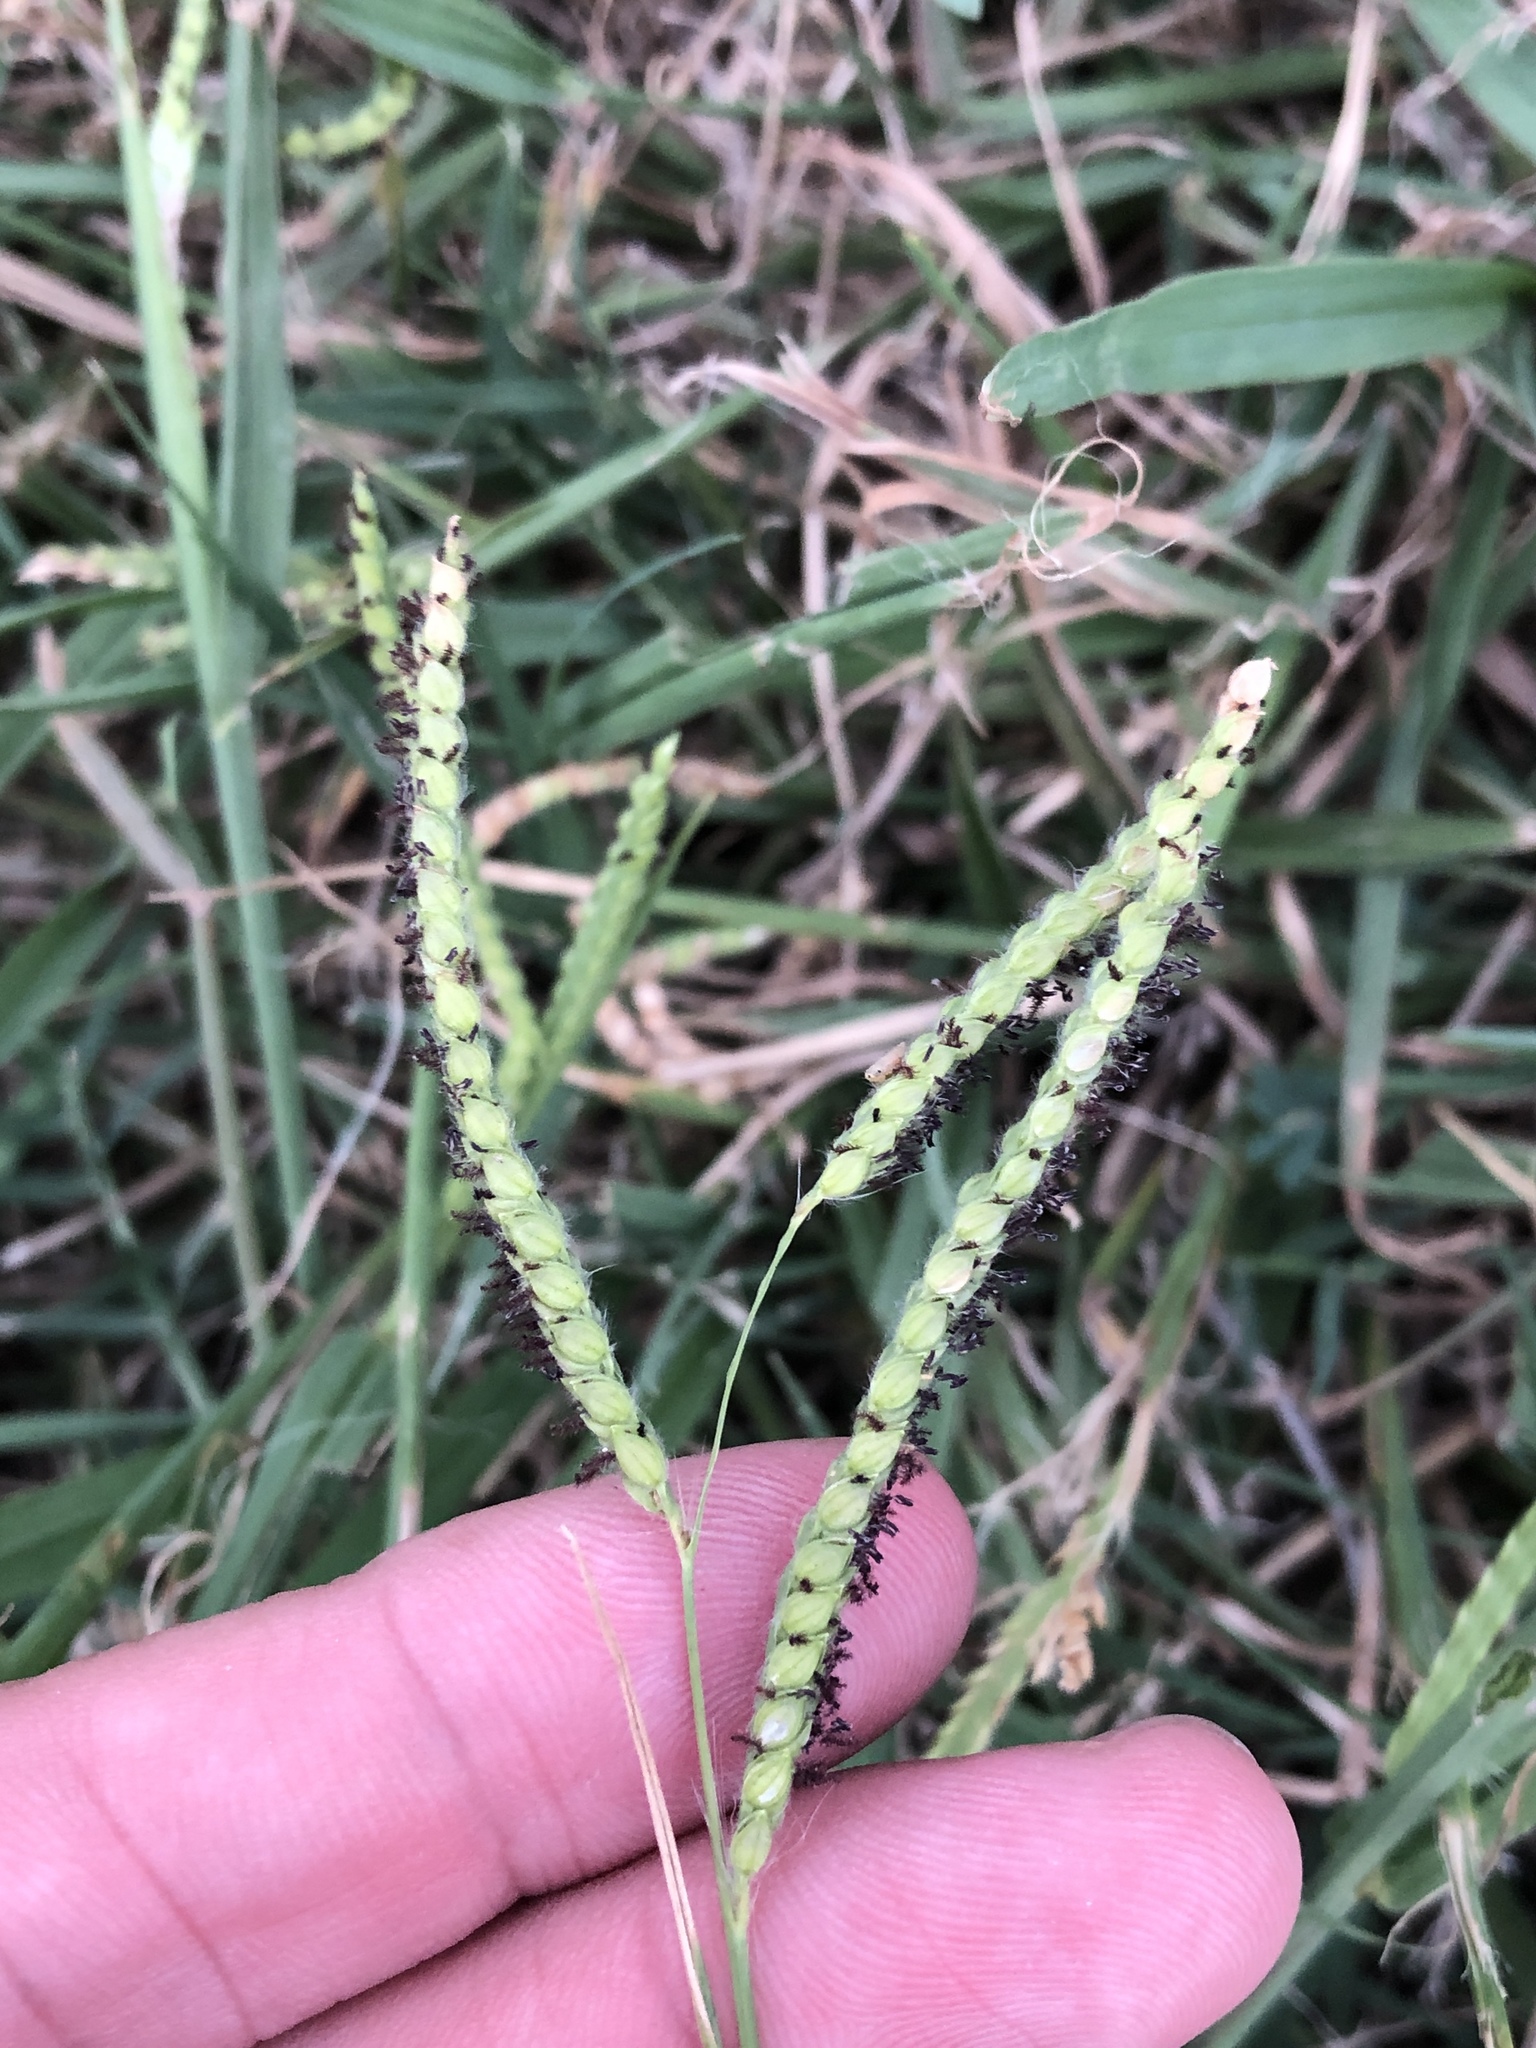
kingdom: Plantae
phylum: Tracheophyta
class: Liliopsida
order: Poales
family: Poaceae
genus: Paspalum
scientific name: Paspalum dilatatum
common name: Dallisgrass
